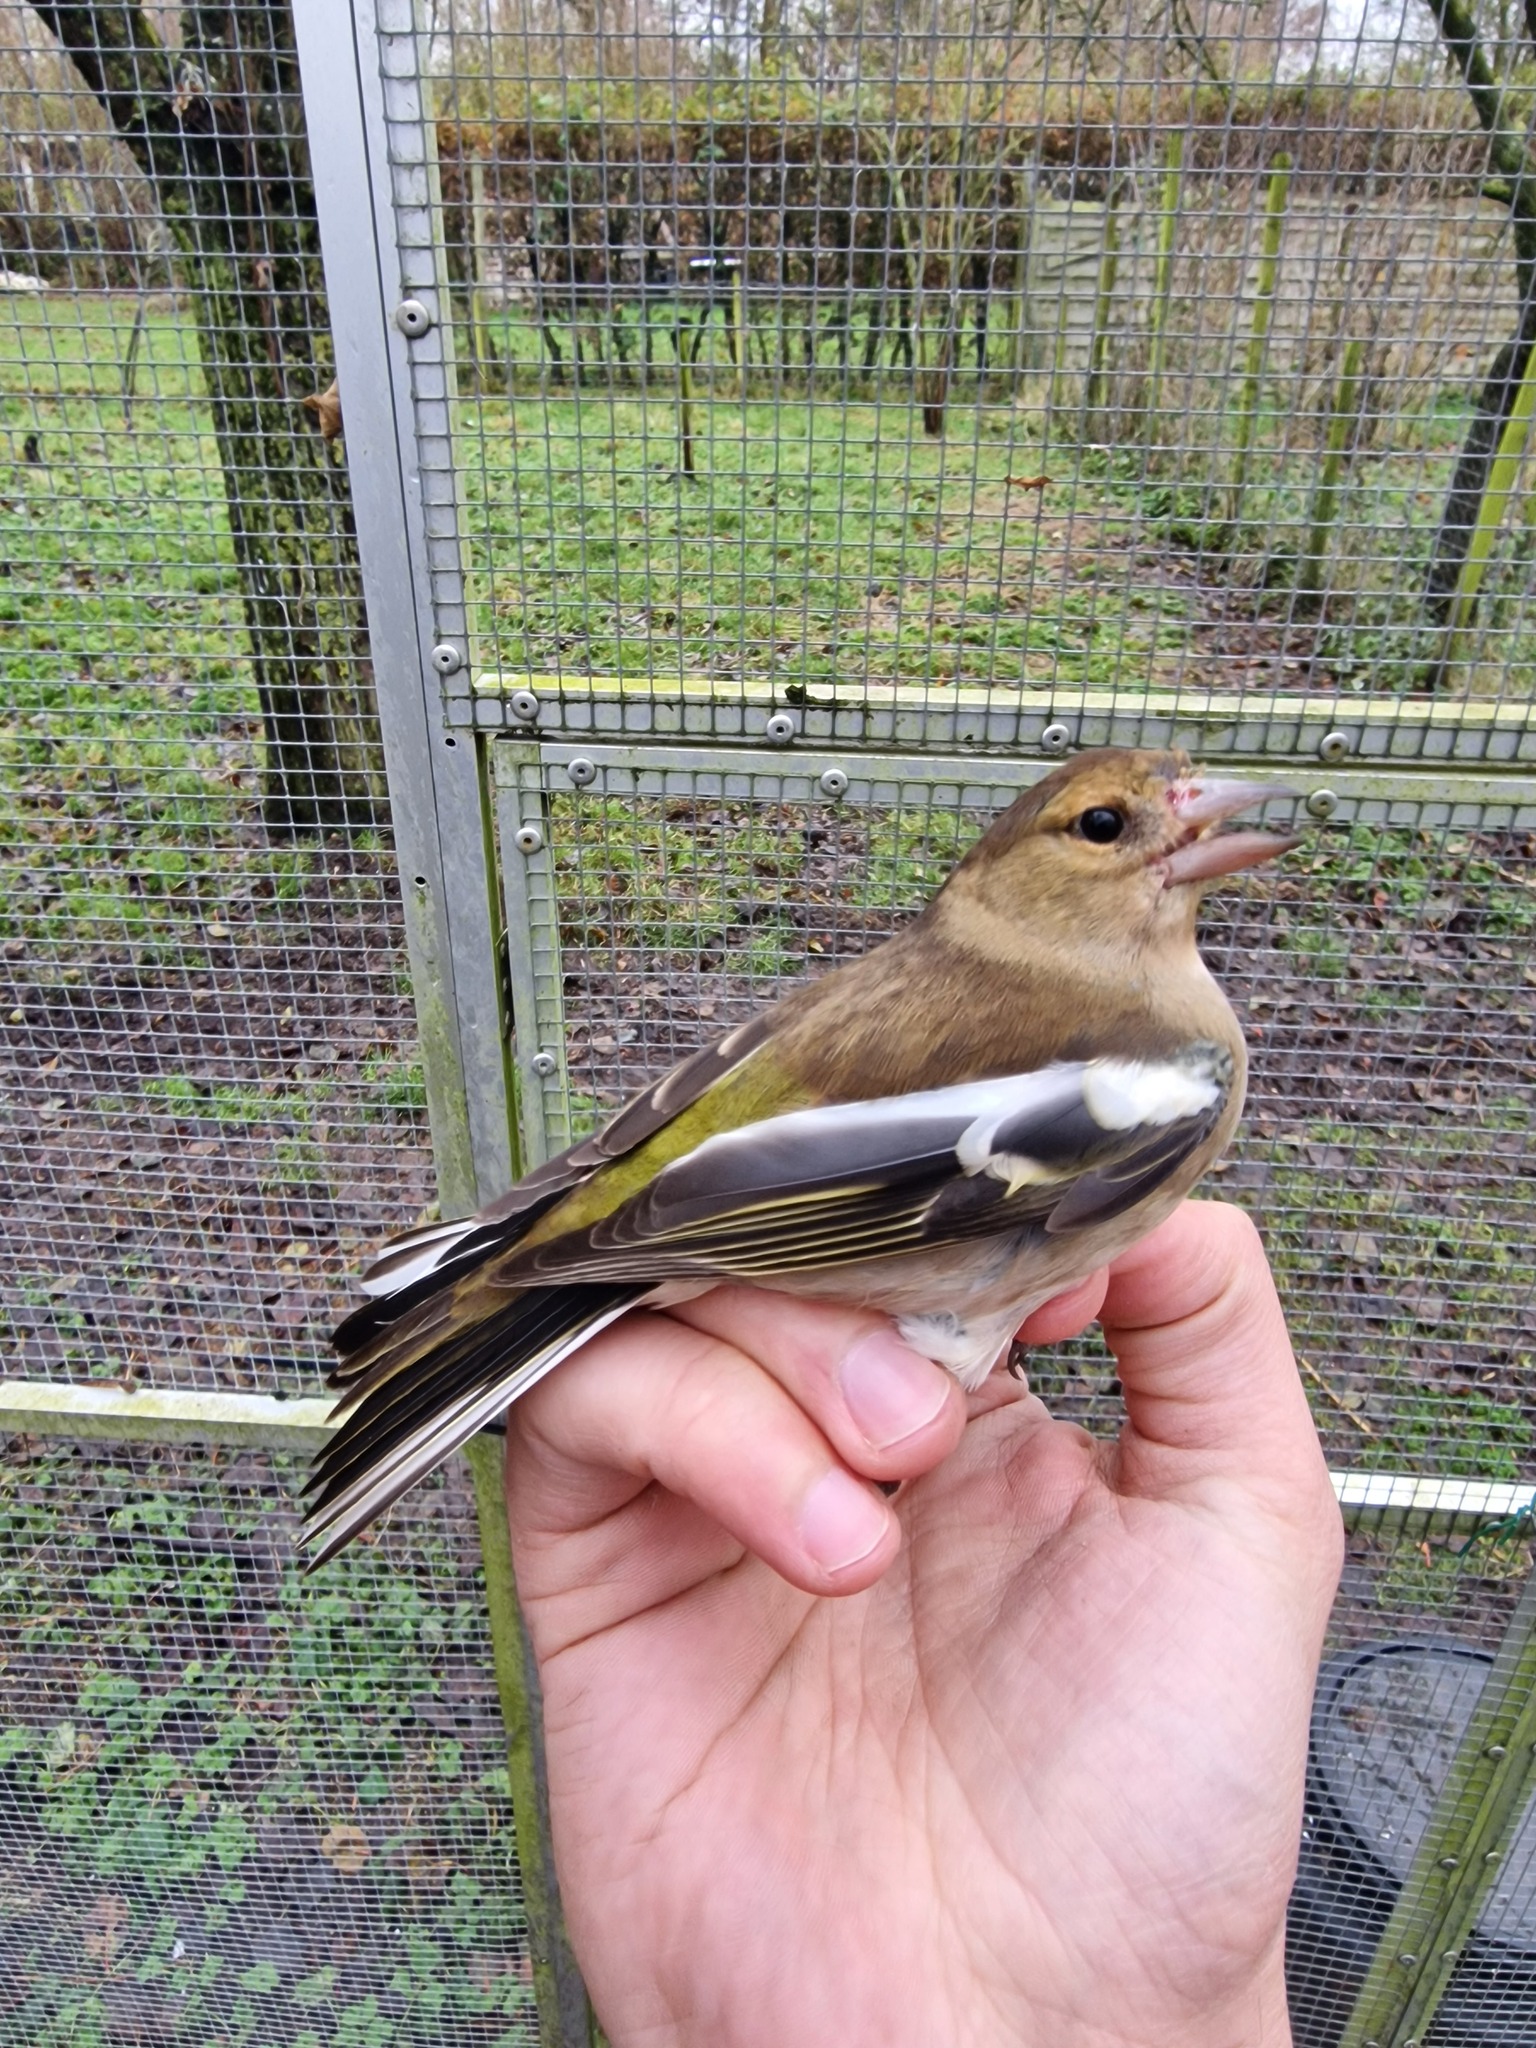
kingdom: Animalia
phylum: Chordata
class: Aves
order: Passeriformes
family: Fringillidae
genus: Fringilla
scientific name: Fringilla coelebs
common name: Common chaffinch
